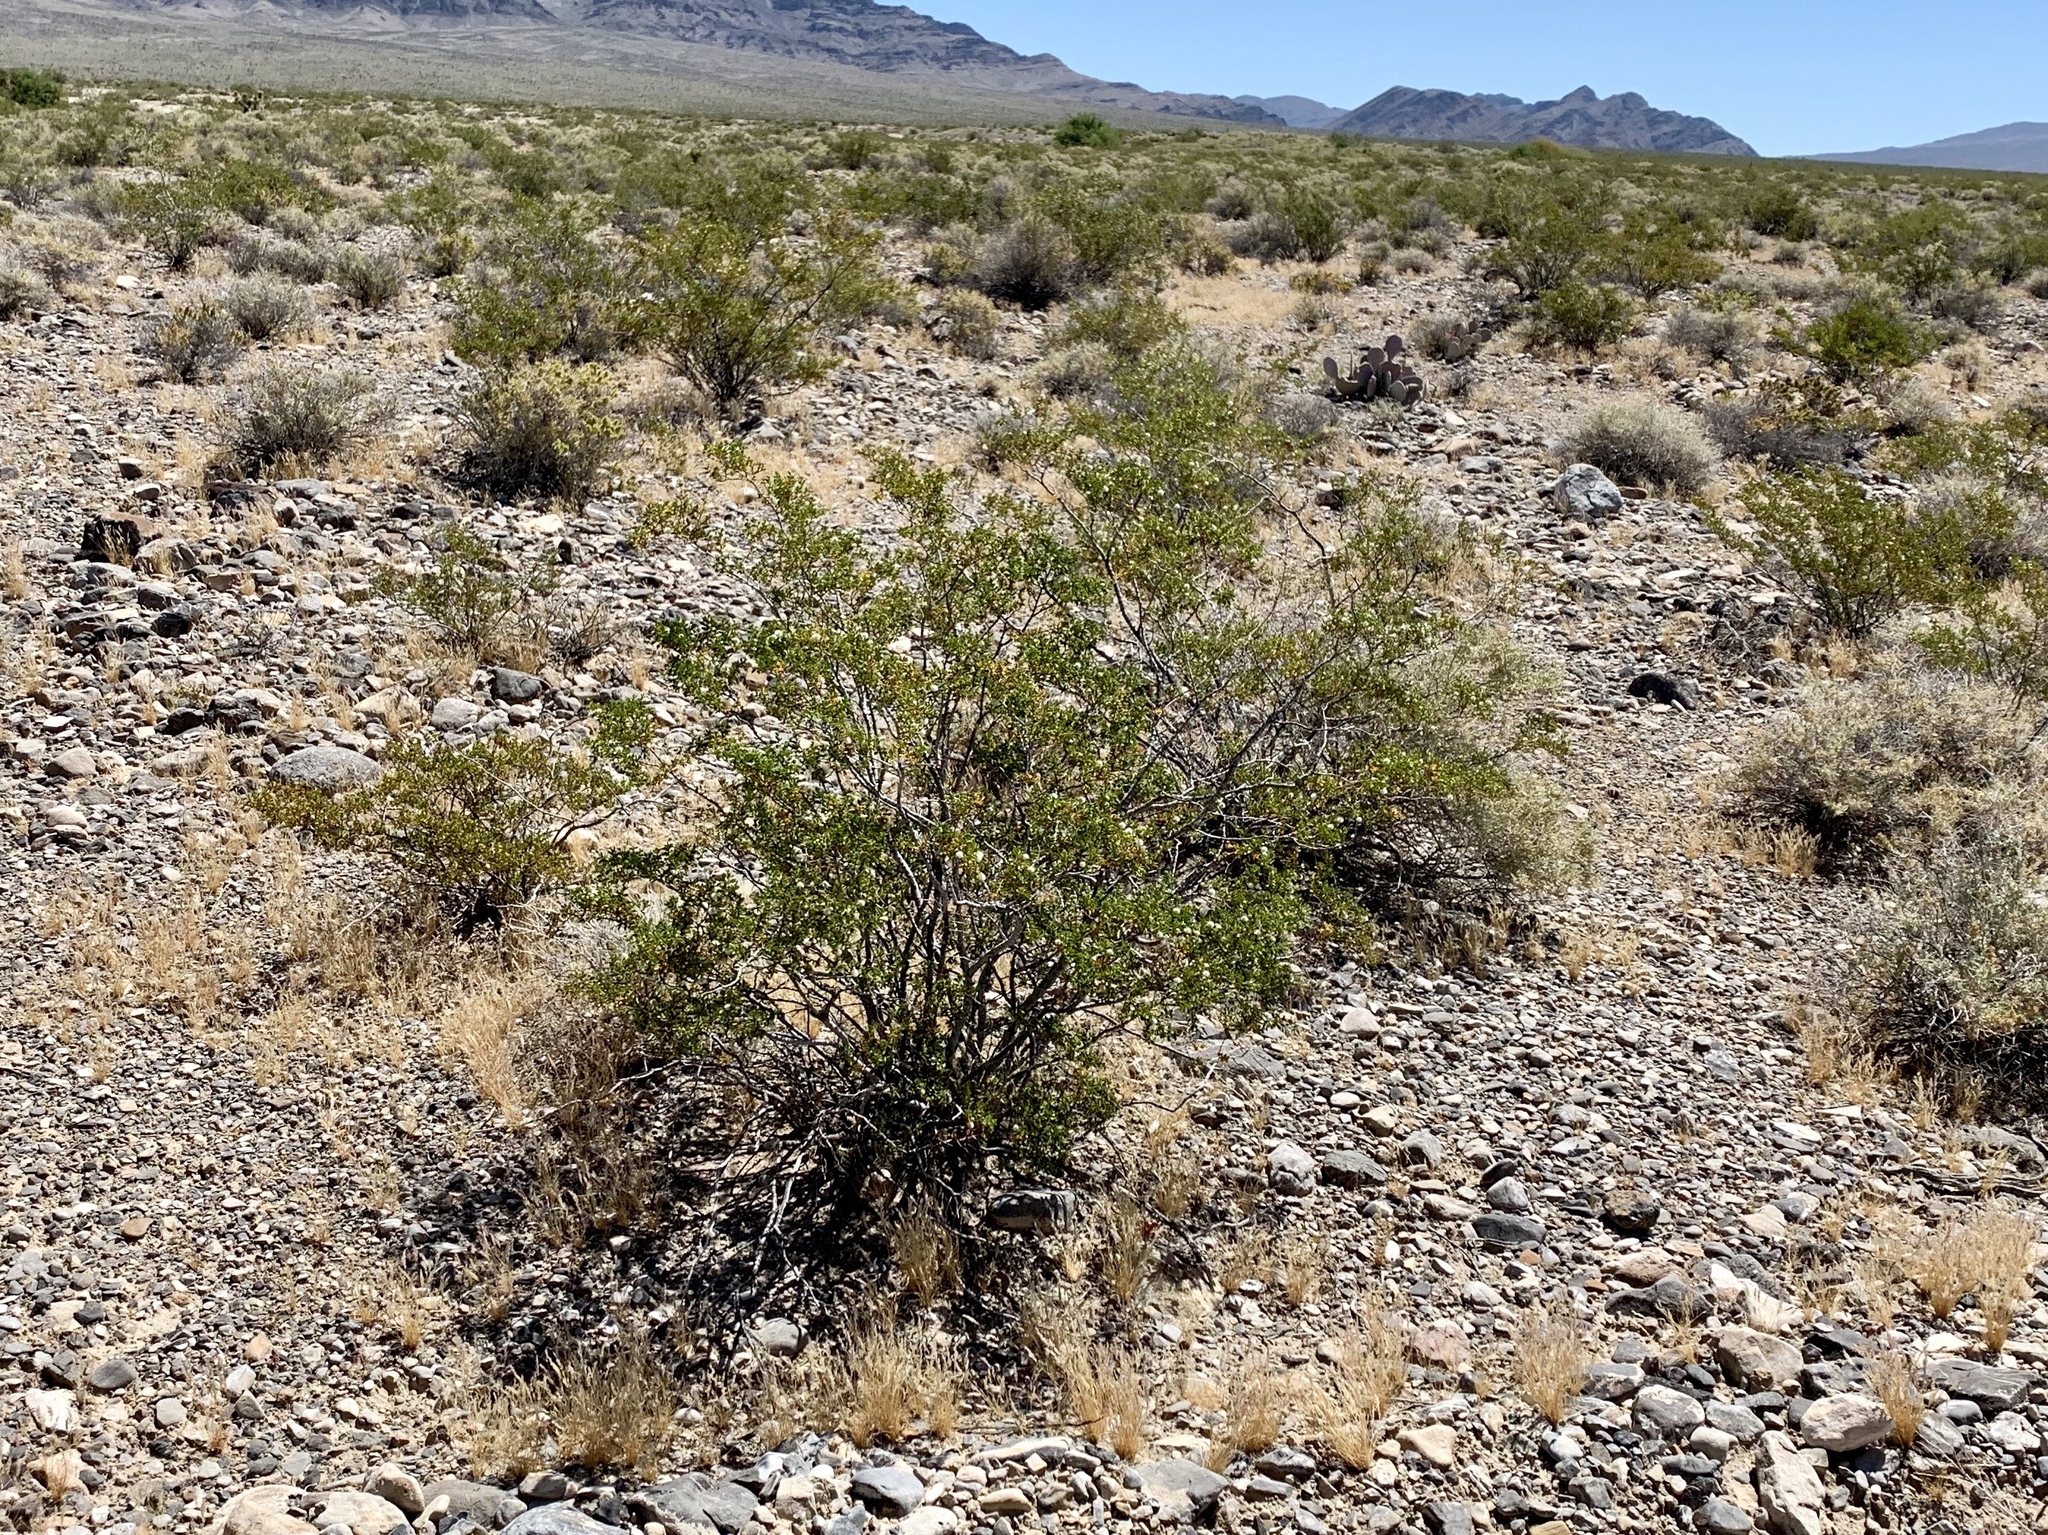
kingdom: Plantae
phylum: Tracheophyta
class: Magnoliopsida
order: Zygophyllales
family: Zygophyllaceae
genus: Larrea
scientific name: Larrea tridentata
